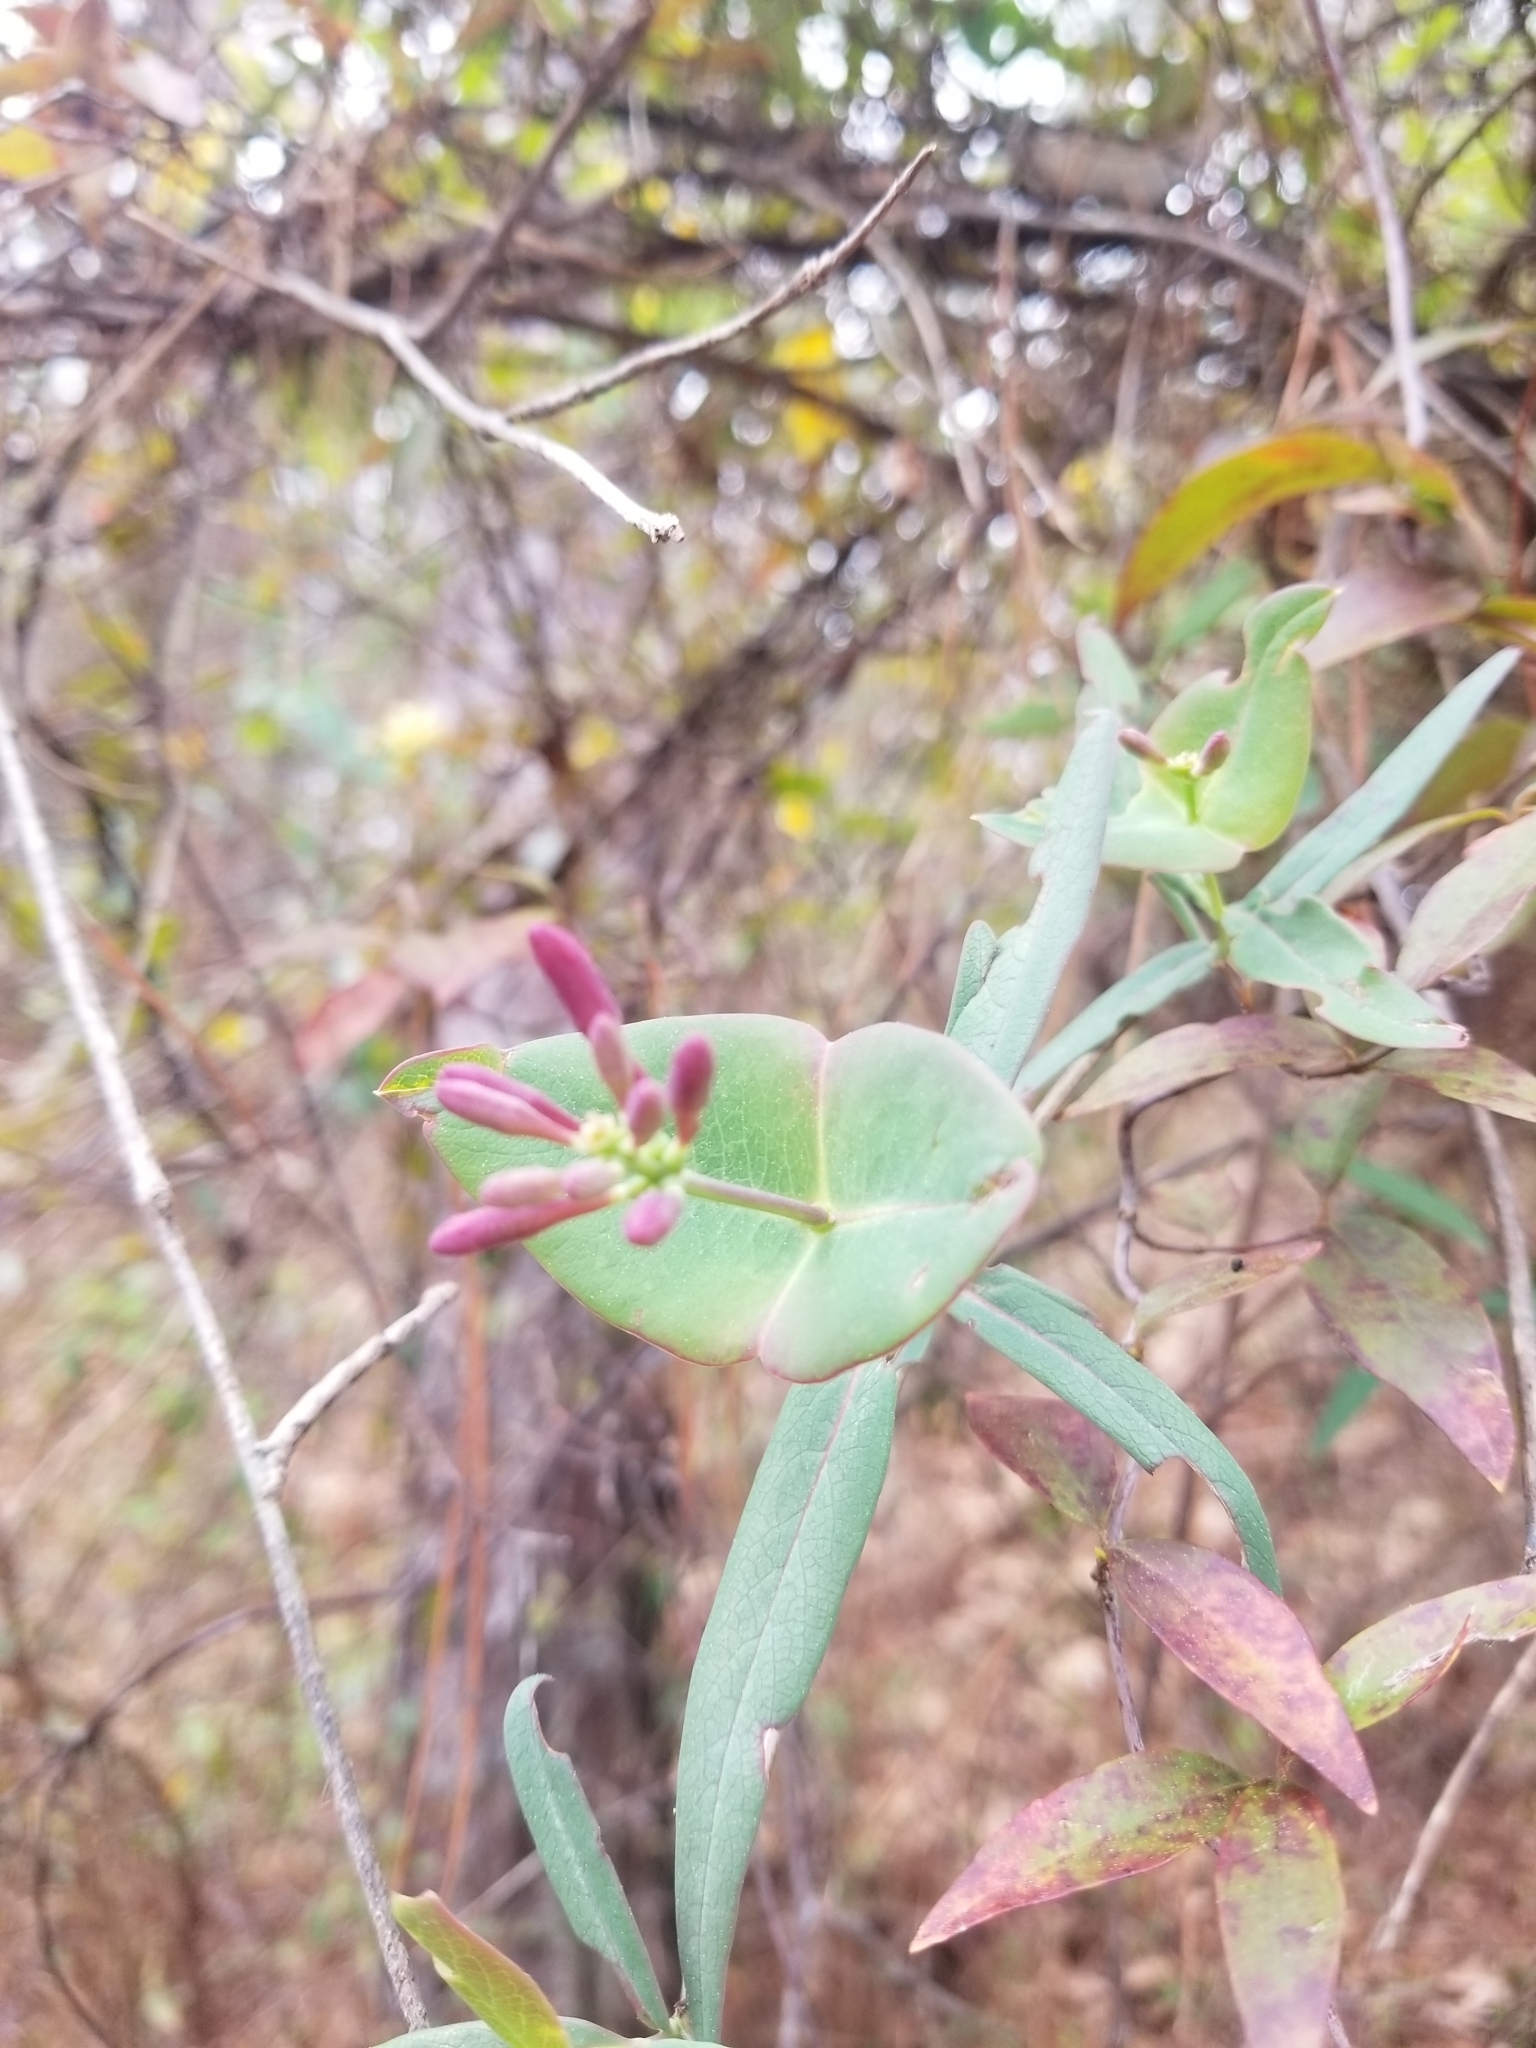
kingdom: Plantae
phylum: Tracheophyta
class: Magnoliopsida
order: Dipsacales
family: Caprifoliaceae
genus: Lonicera
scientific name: Lonicera sempervirens
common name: Coral honeysuckle
